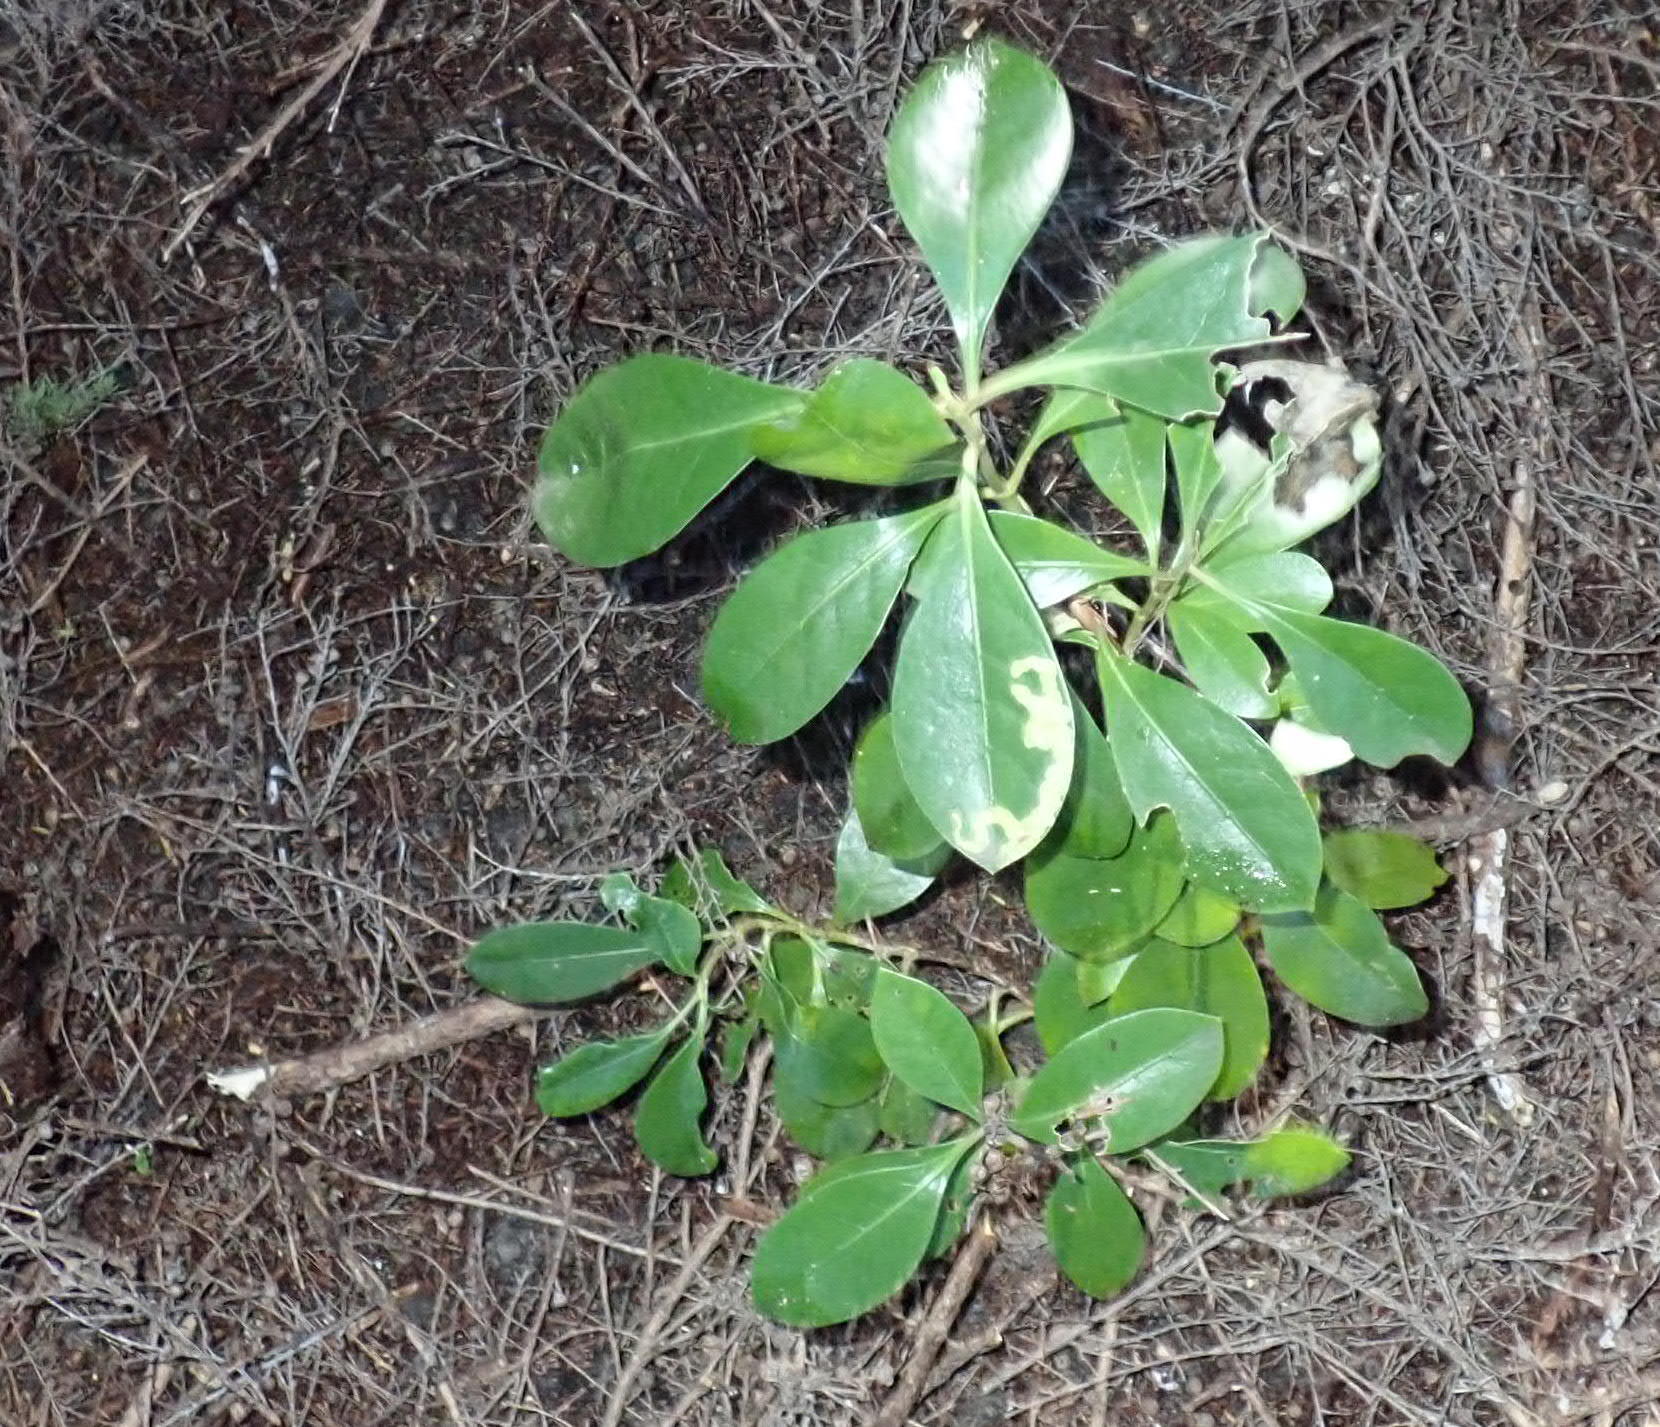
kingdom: Plantae
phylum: Tracheophyta
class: Magnoliopsida
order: Gentianales
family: Rubiaceae
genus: Coprosma
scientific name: Coprosma lucida
